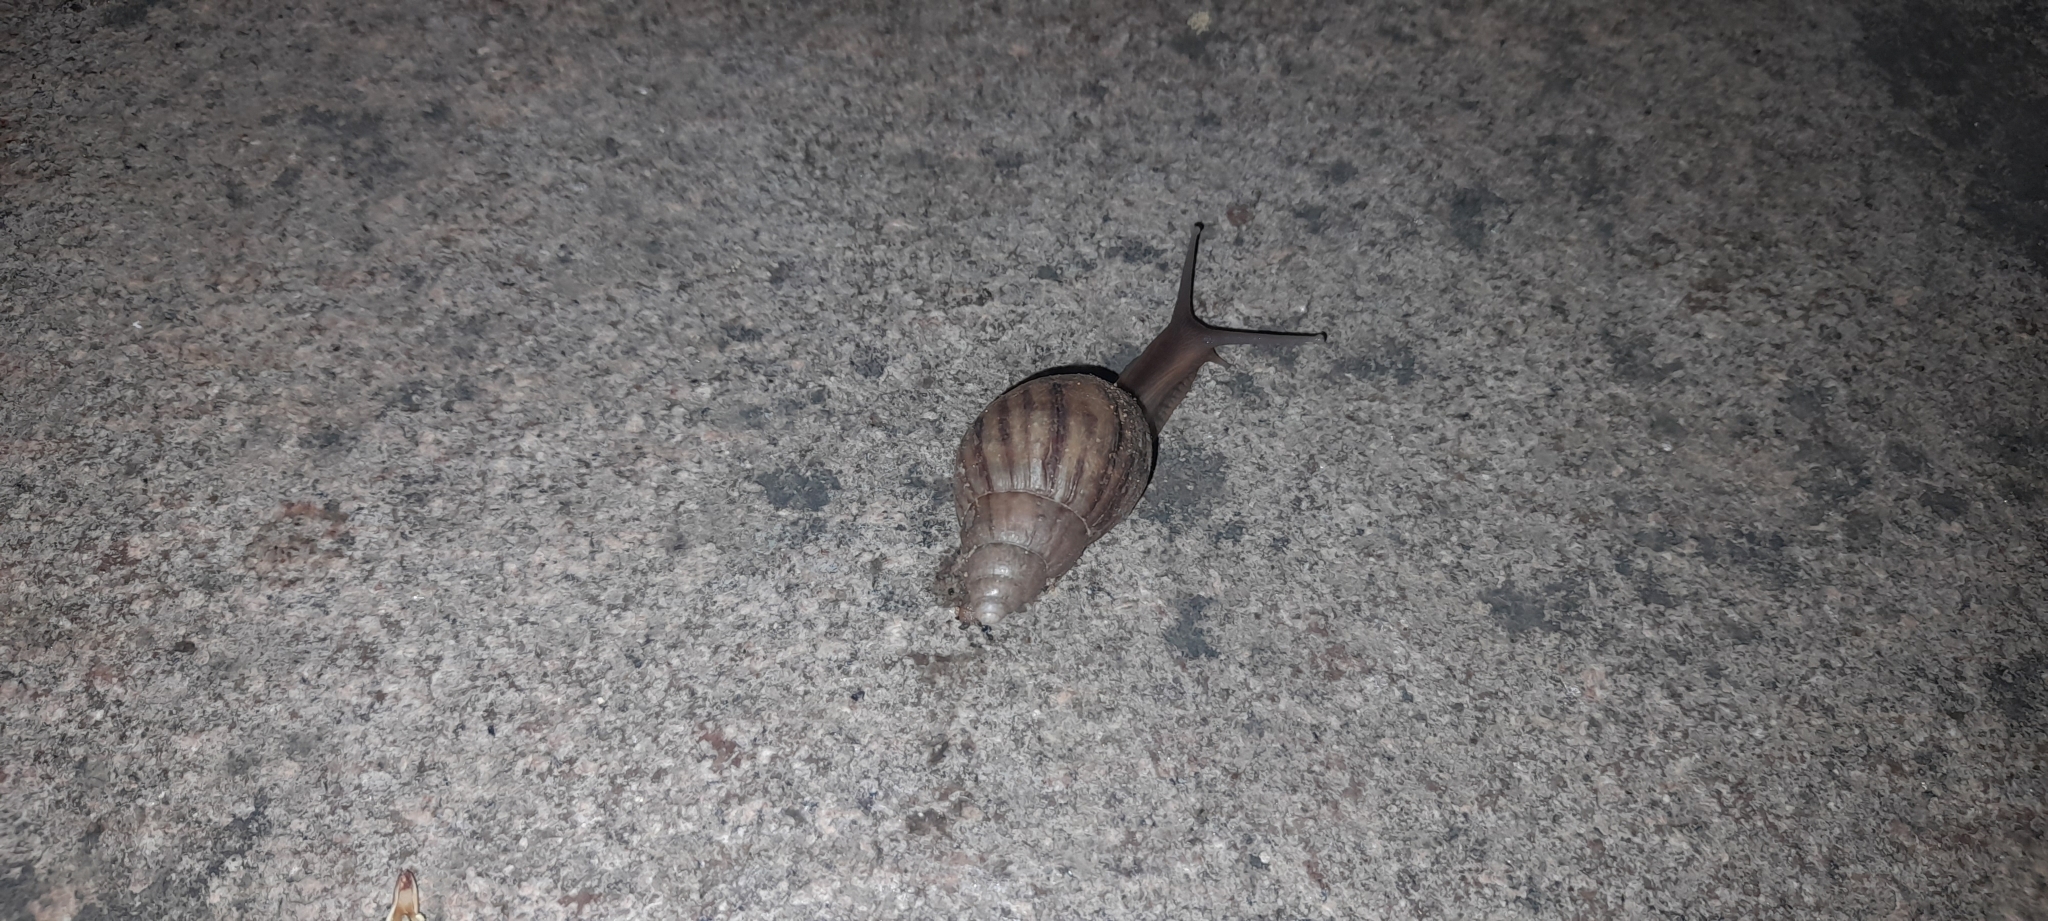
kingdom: Animalia
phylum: Mollusca
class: Gastropoda
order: Stylommatophora
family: Achatinidae
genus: Lissachatina
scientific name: Lissachatina fulica
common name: Giant african snail
